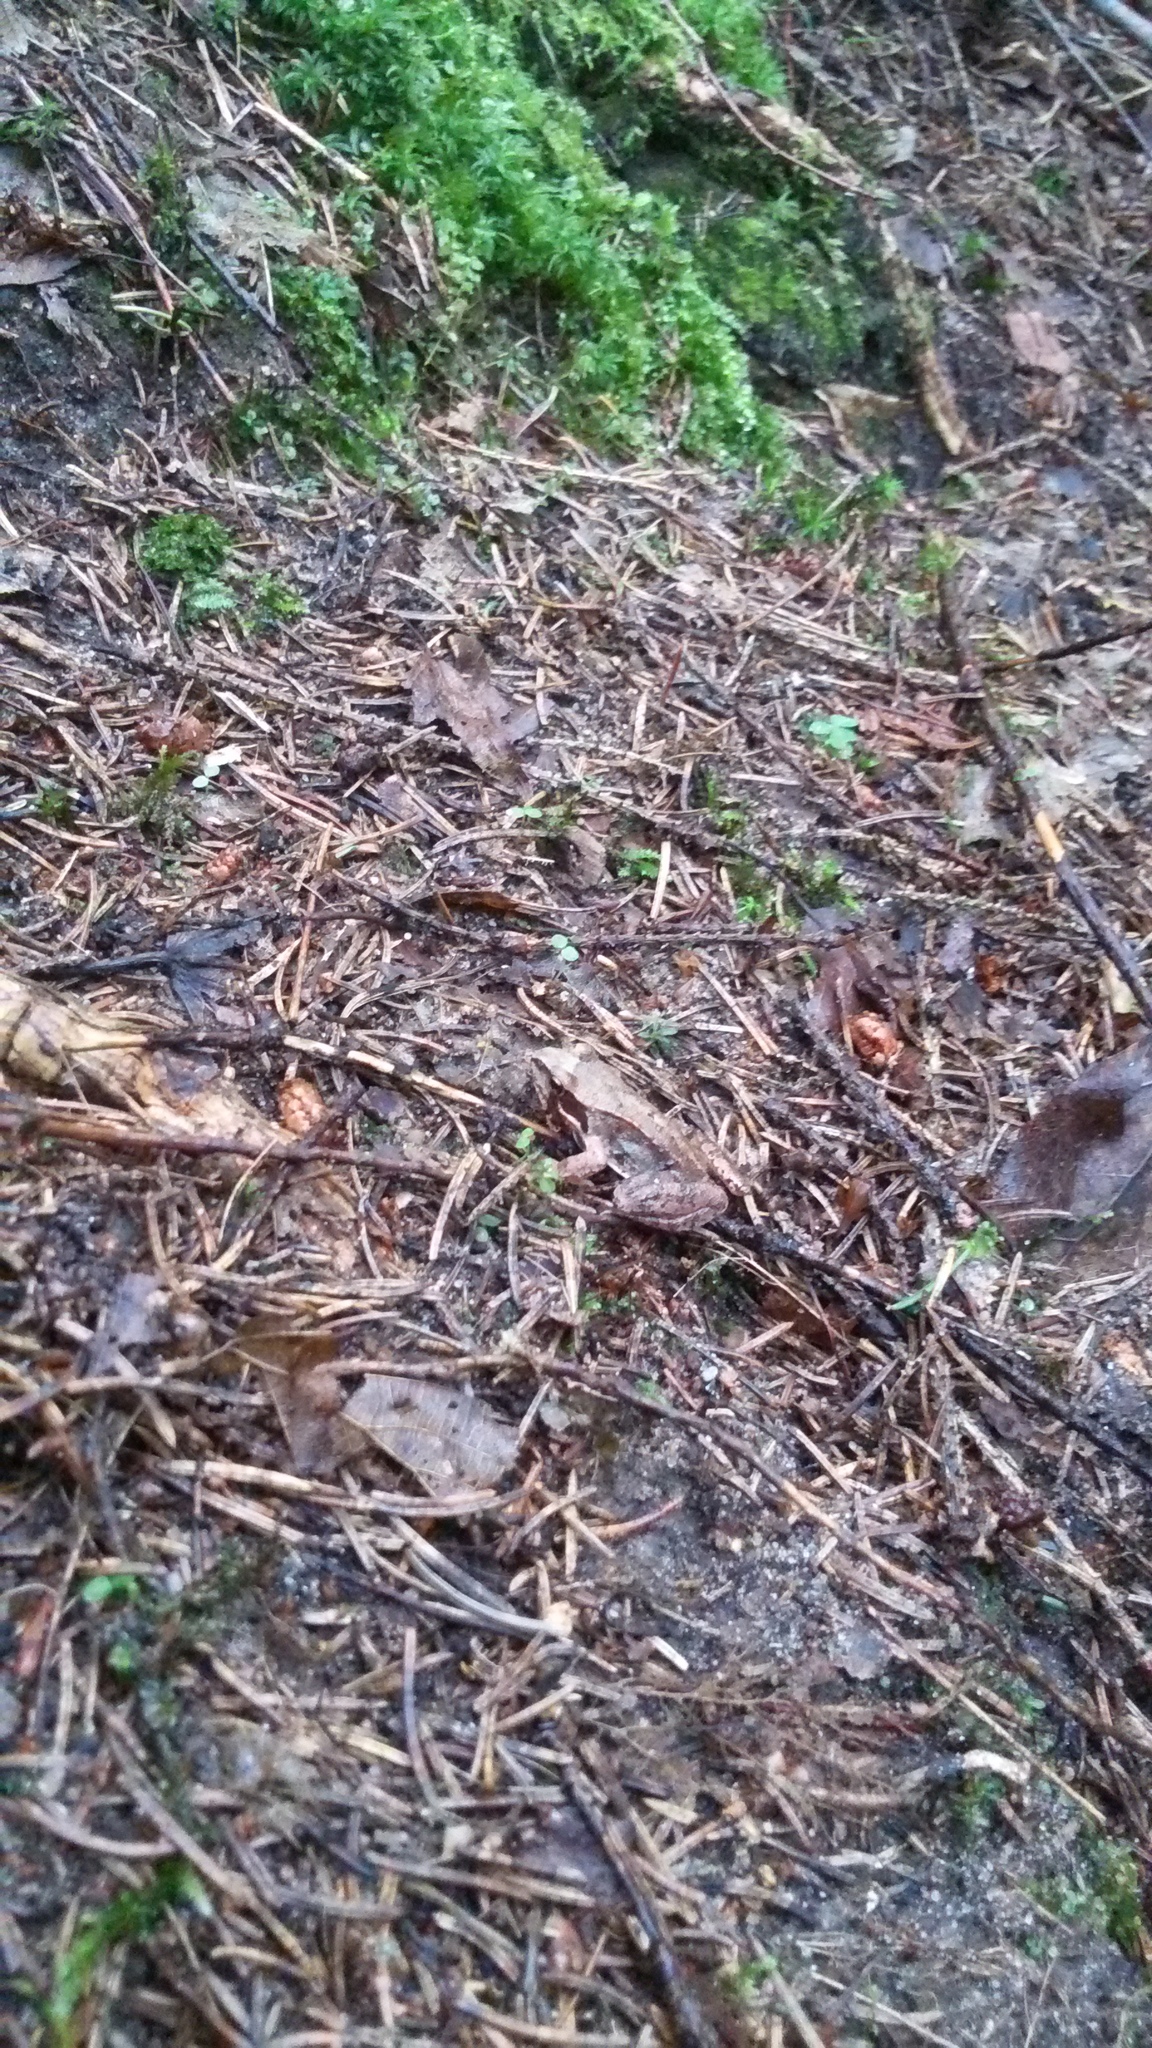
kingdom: Animalia
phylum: Chordata
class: Amphibia
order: Anura
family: Ranidae
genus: Rana
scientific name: Rana
